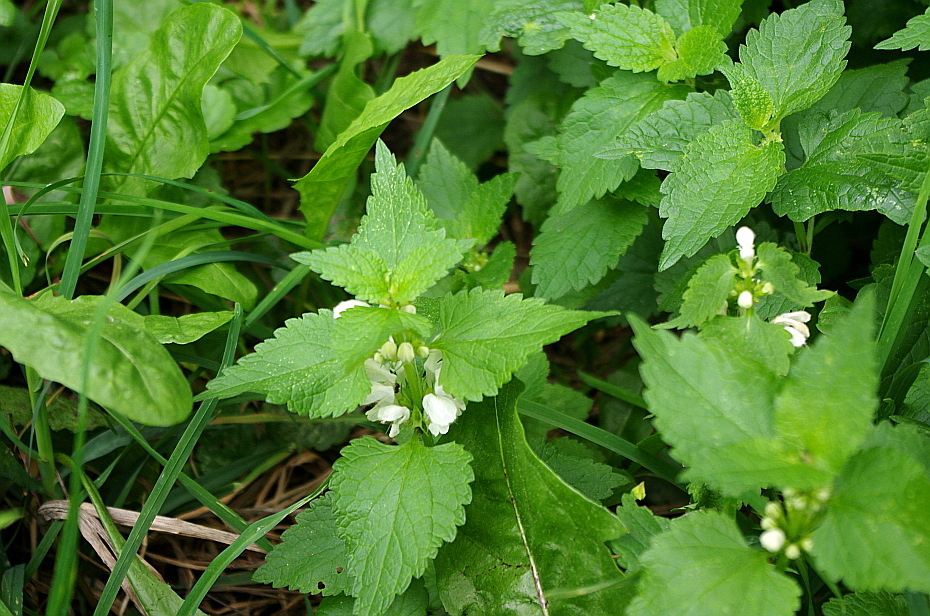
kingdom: Plantae
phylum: Tracheophyta
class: Magnoliopsida
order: Lamiales
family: Lamiaceae
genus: Lamium
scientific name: Lamium album
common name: White dead-nettle
